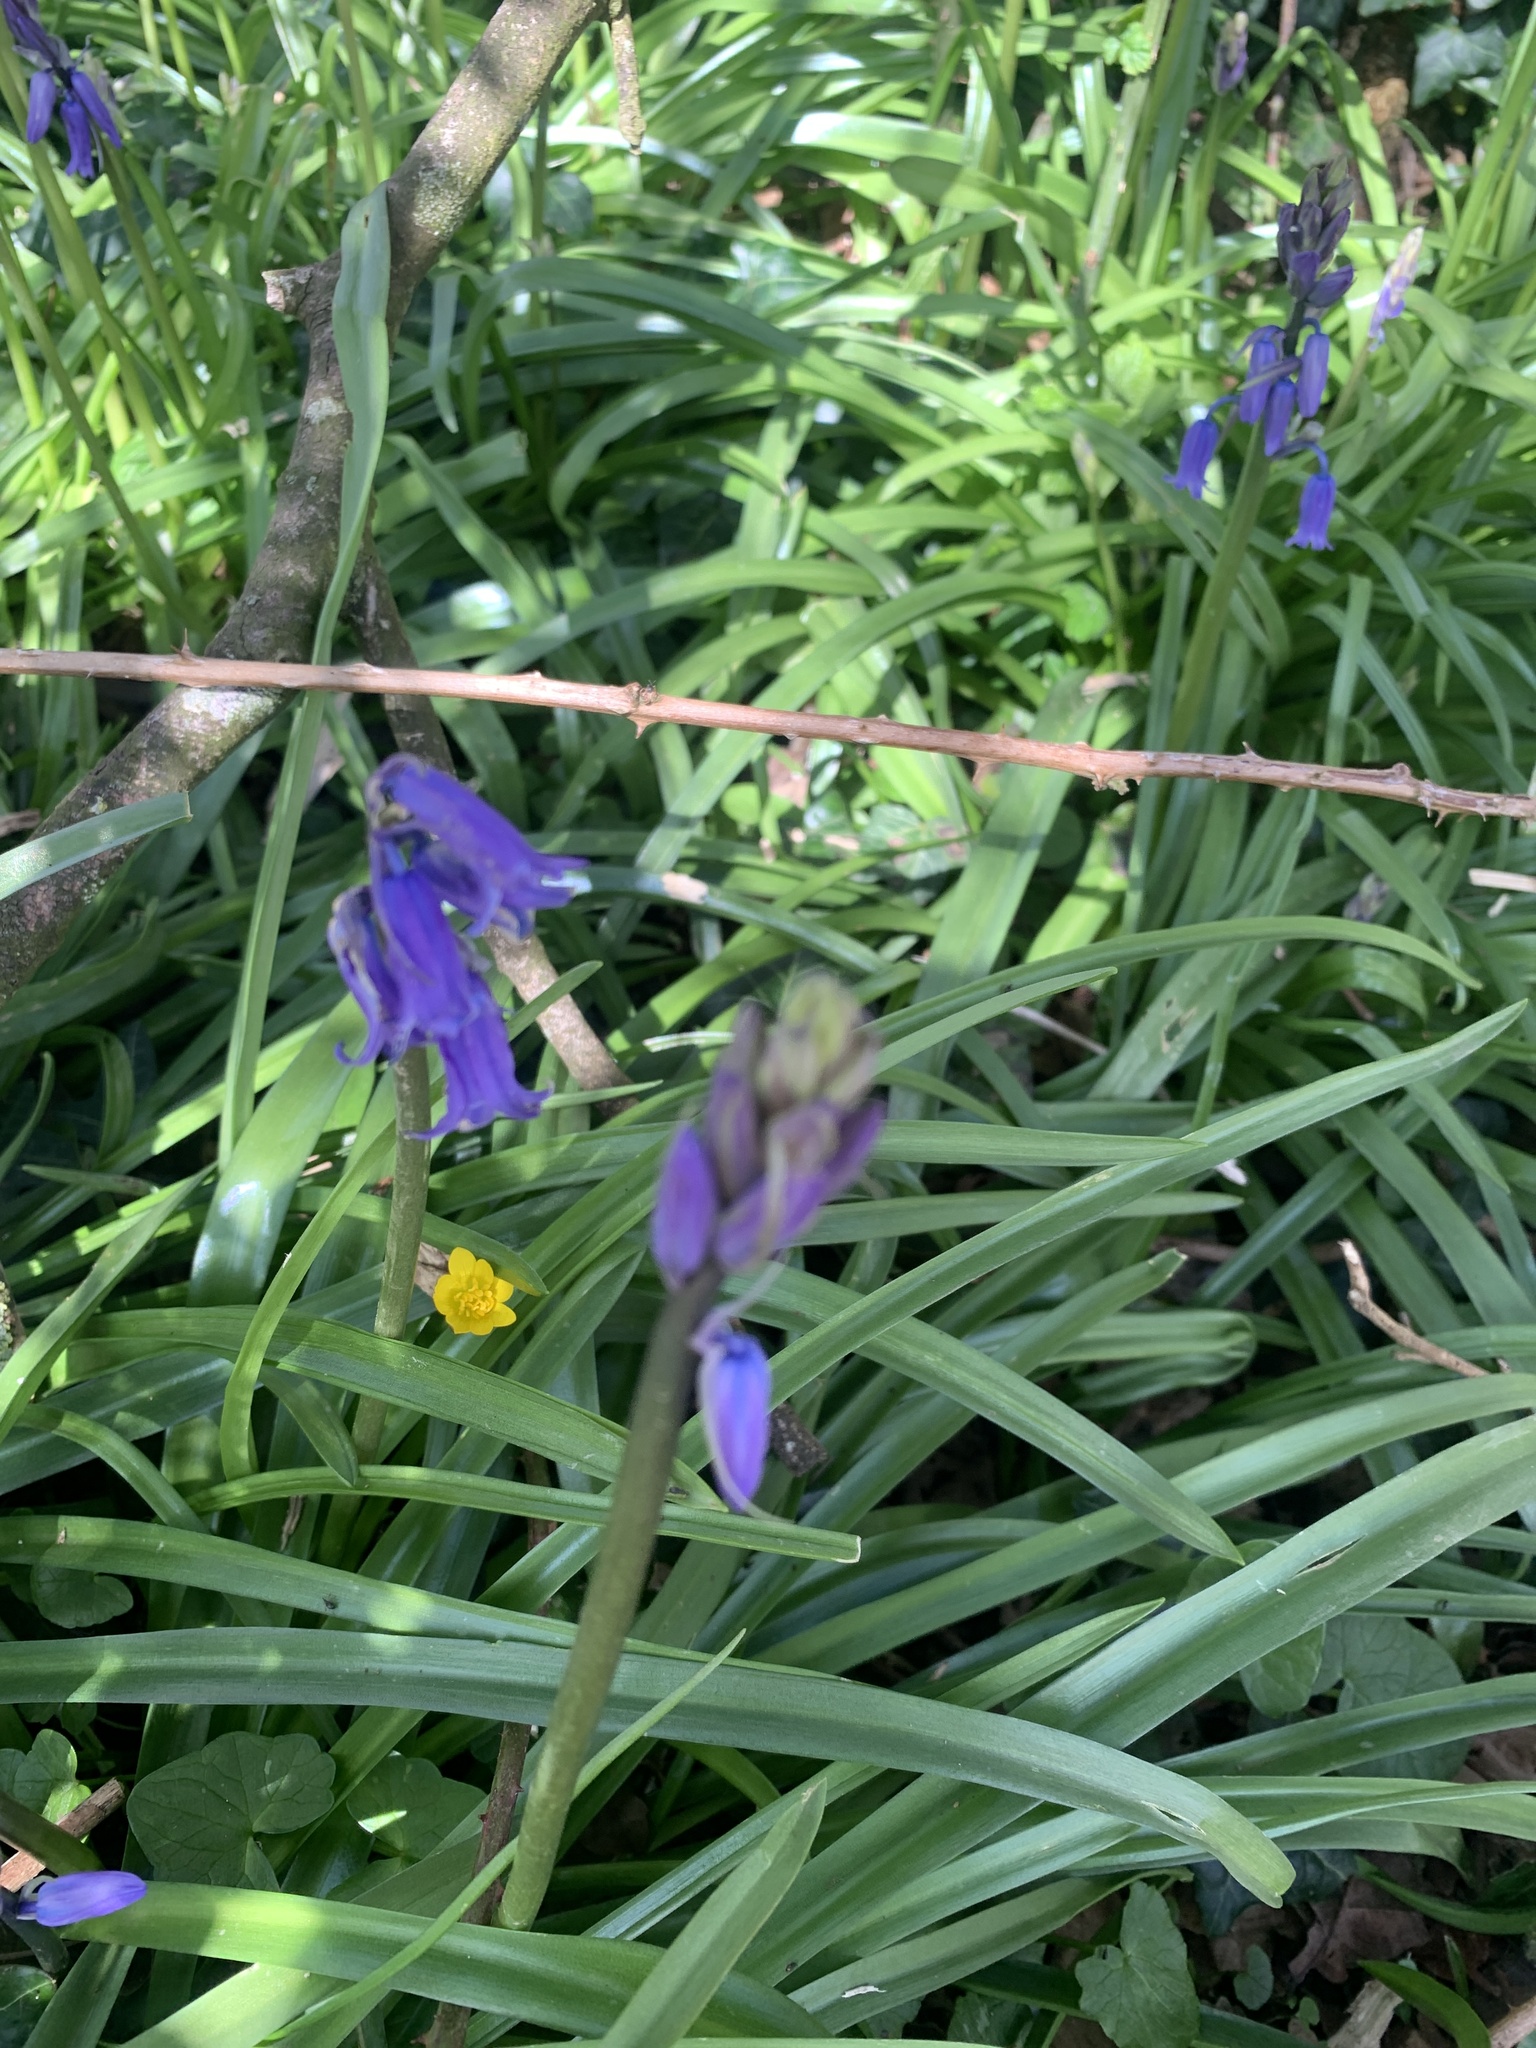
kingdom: Plantae
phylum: Tracheophyta
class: Liliopsida
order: Asparagales
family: Asparagaceae
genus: Hyacinthoides
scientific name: Hyacinthoides non-scripta
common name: Bluebell
